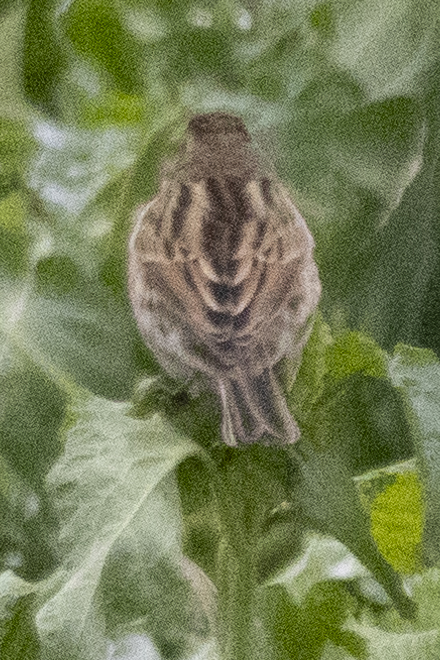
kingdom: Animalia
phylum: Chordata
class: Aves
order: Passeriformes
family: Passeridae
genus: Passer
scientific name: Passer domesticus
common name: House sparrow
